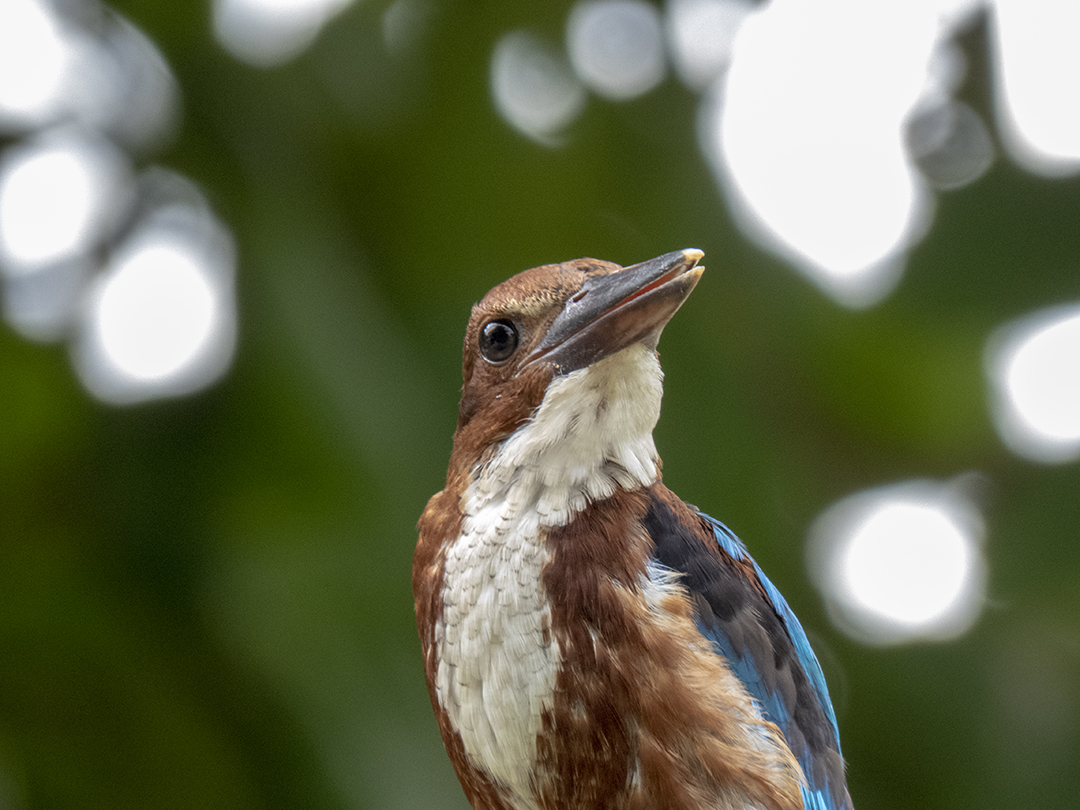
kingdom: Animalia
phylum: Chordata
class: Aves
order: Coraciiformes
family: Alcedinidae
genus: Halcyon
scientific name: Halcyon smyrnensis
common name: White-throated kingfisher
